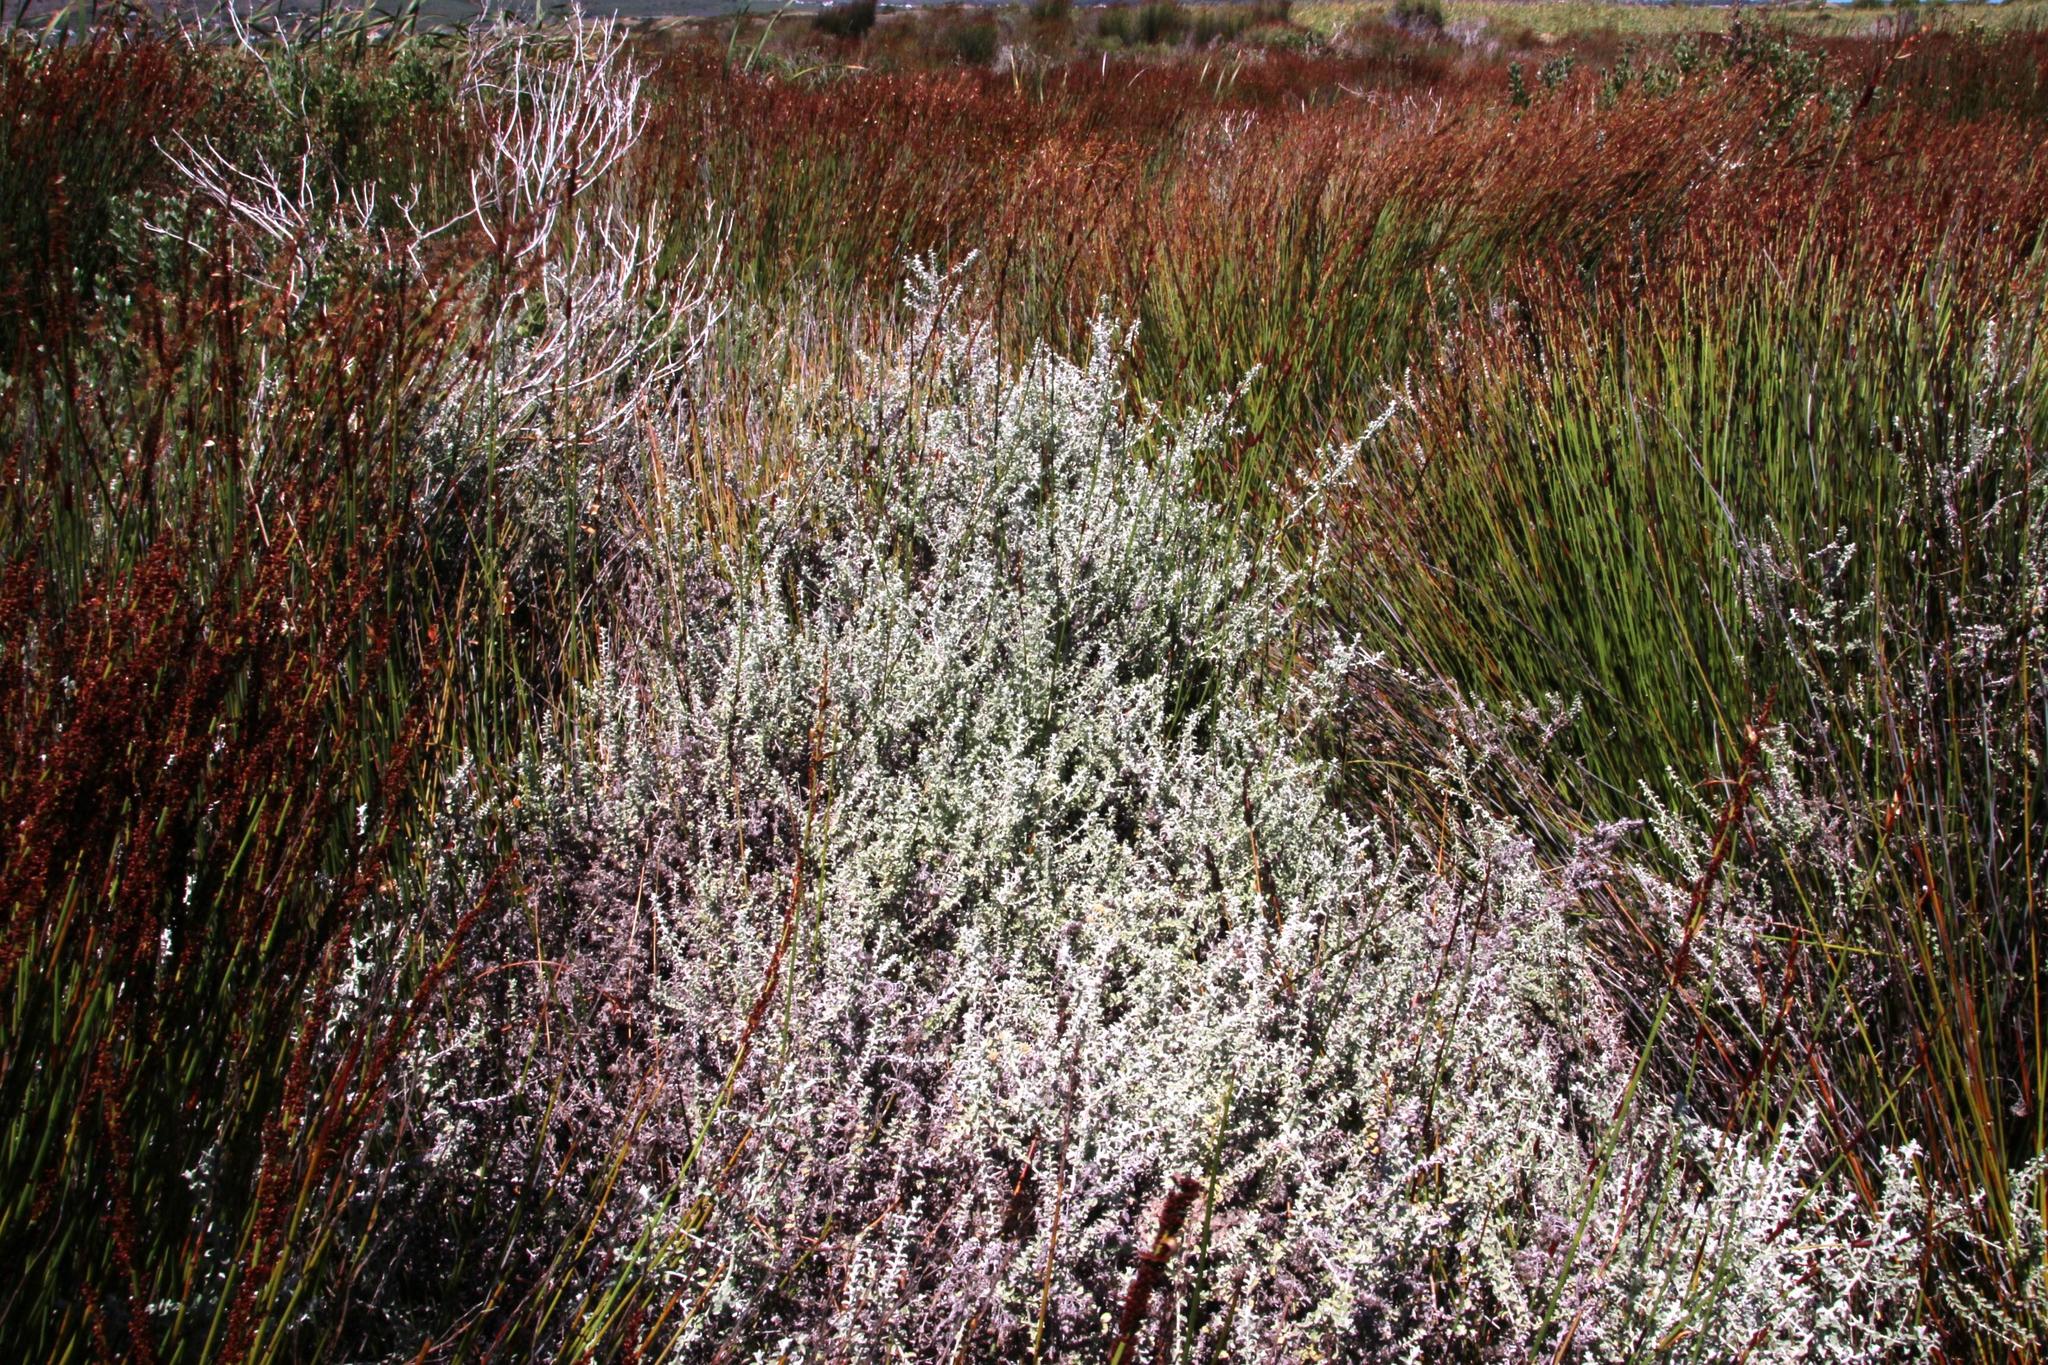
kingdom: Plantae
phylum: Tracheophyta
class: Magnoliopsida
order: Asterales
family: Asteraceae
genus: Plecostachys
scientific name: Plecostachys serpyllifolia
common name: Petite licorice
